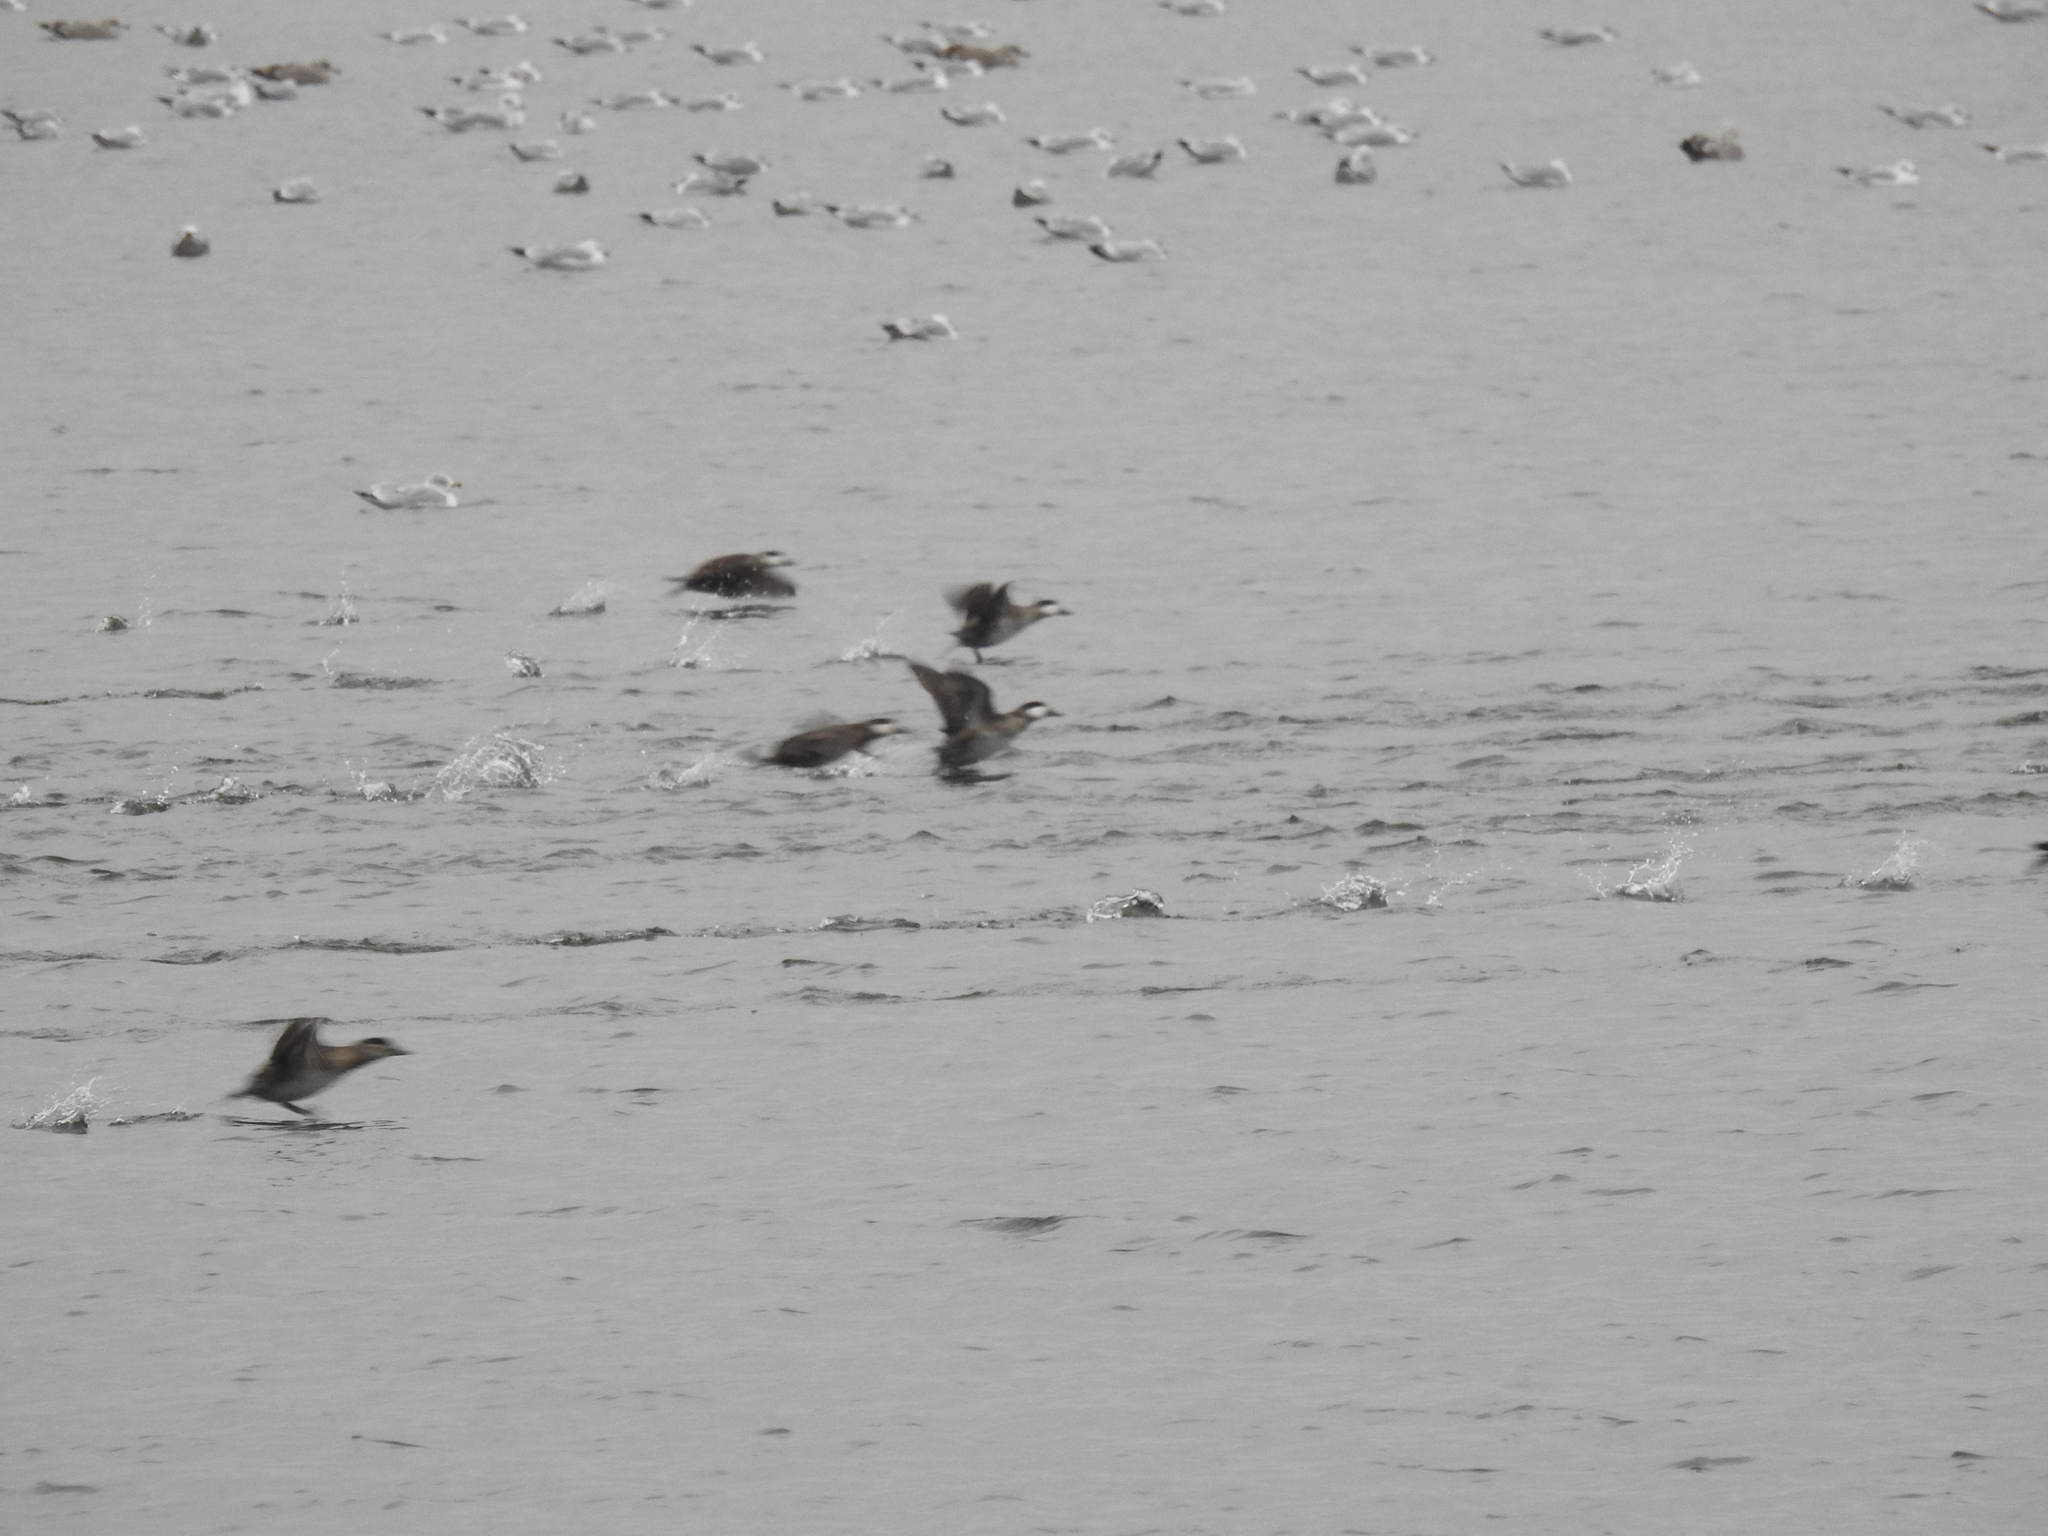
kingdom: Animalia
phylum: Chordata
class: Aves
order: Anseriformes
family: Anatidae
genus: Oxyura
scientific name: Oxyura jamaicensis
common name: Ruddy duck
